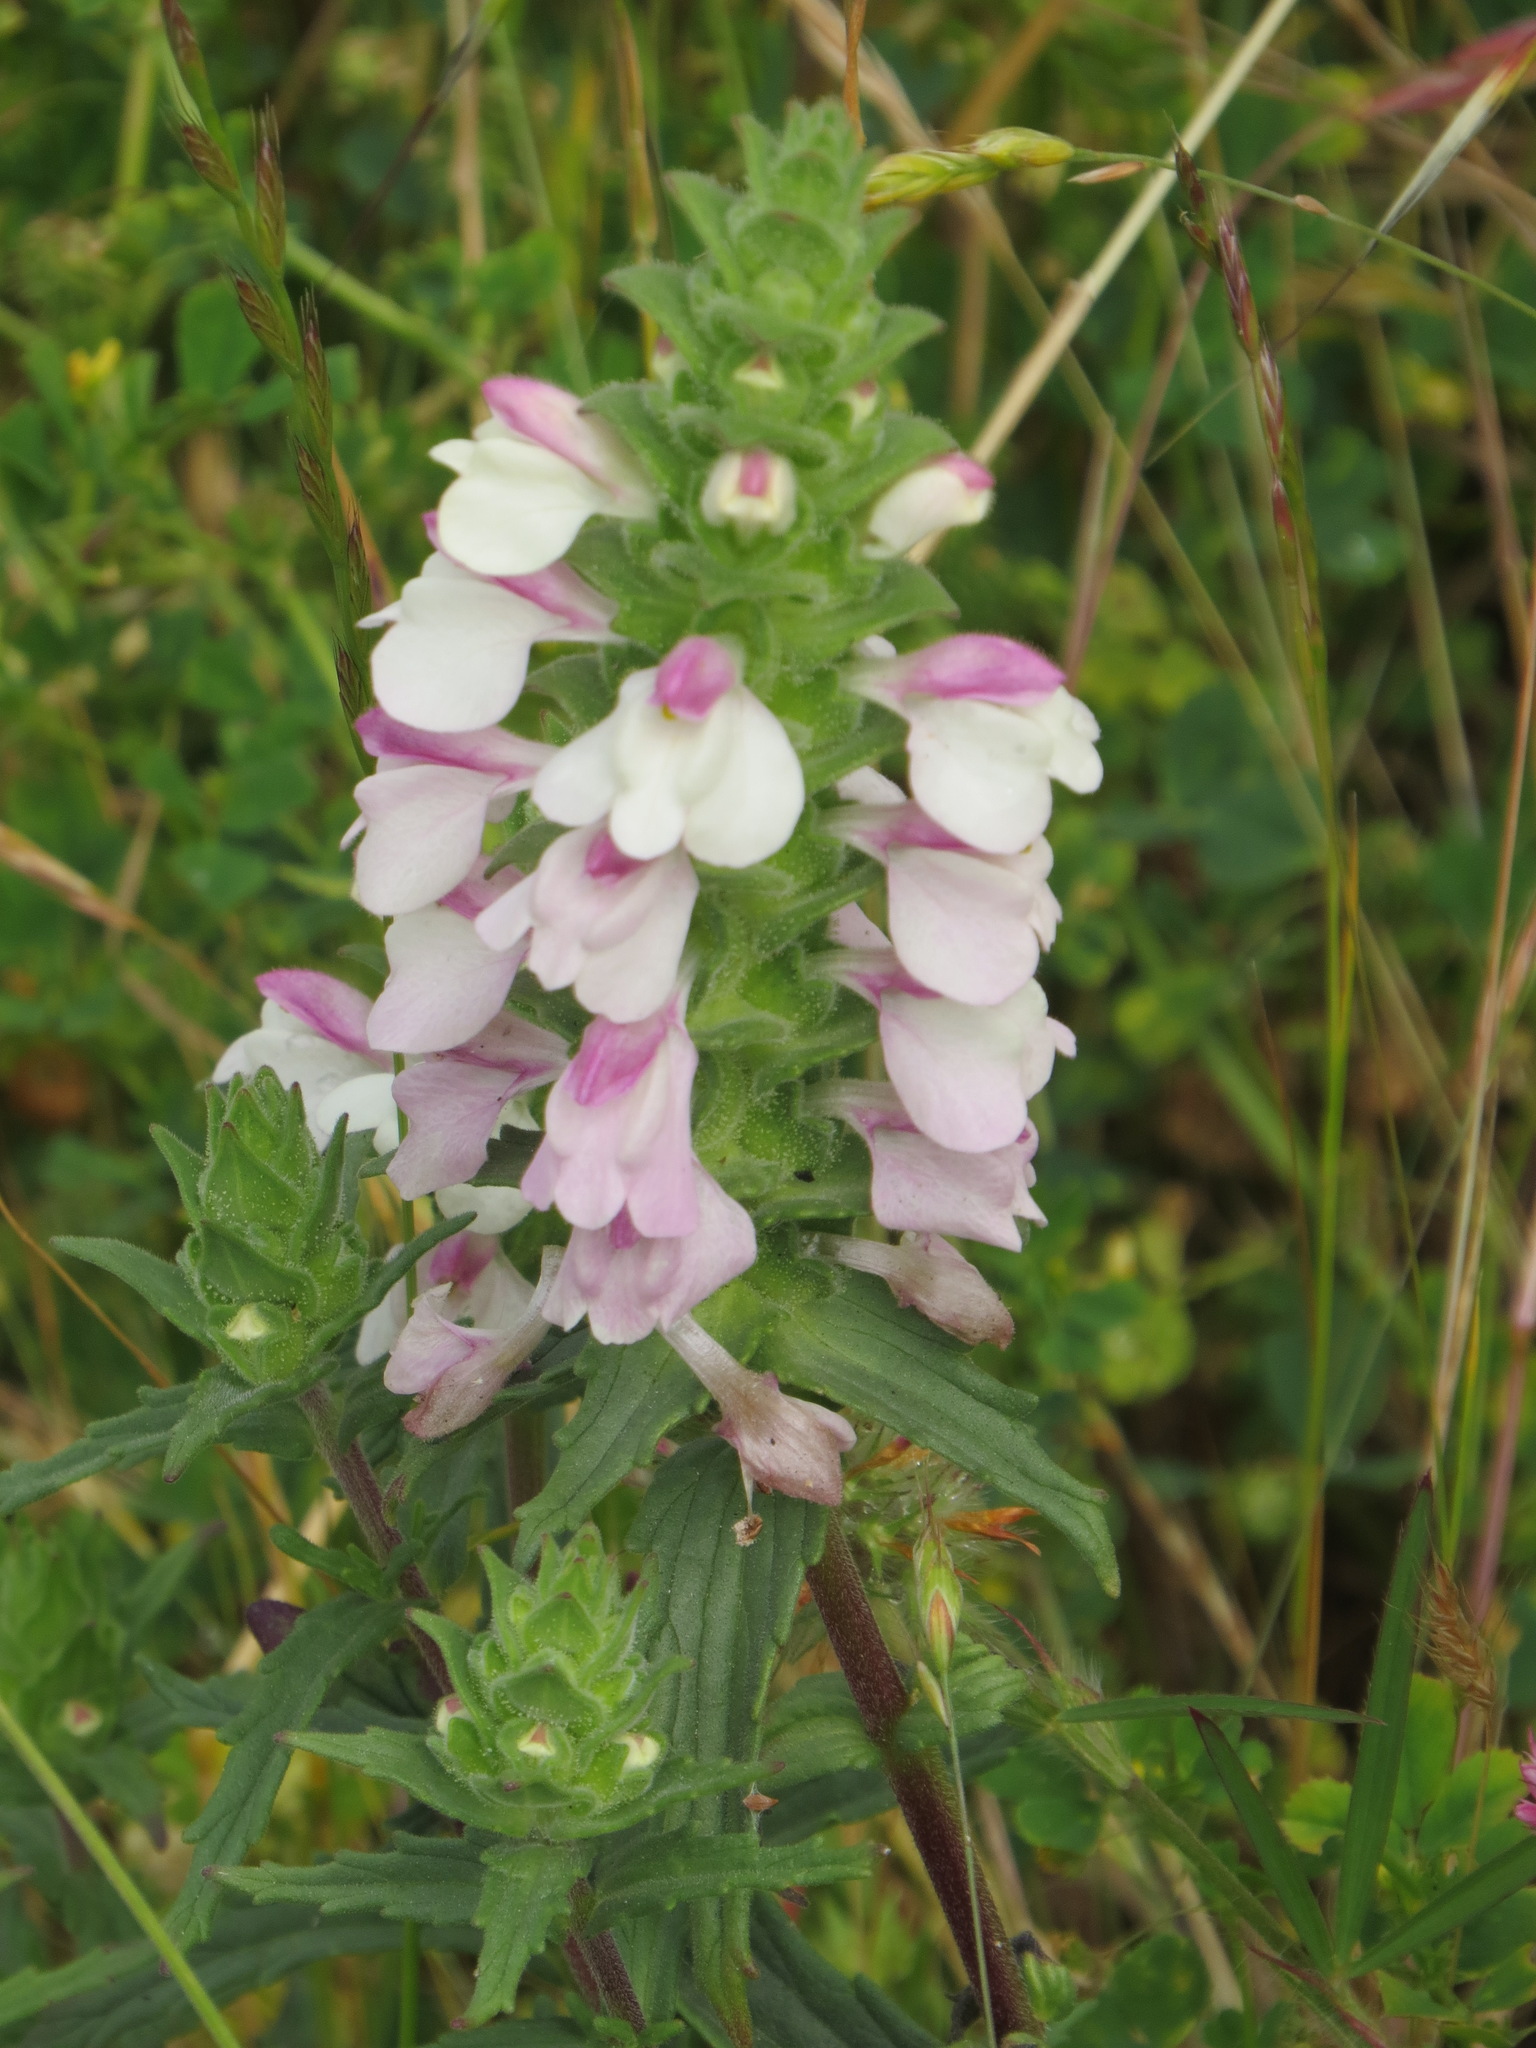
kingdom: Plantae
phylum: Tracheophyta
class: Magnoliopsida
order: Lamiales
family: Orobanchaceae
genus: Bellardia
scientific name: Bellardia trixago
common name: Mediterranean lineseed
